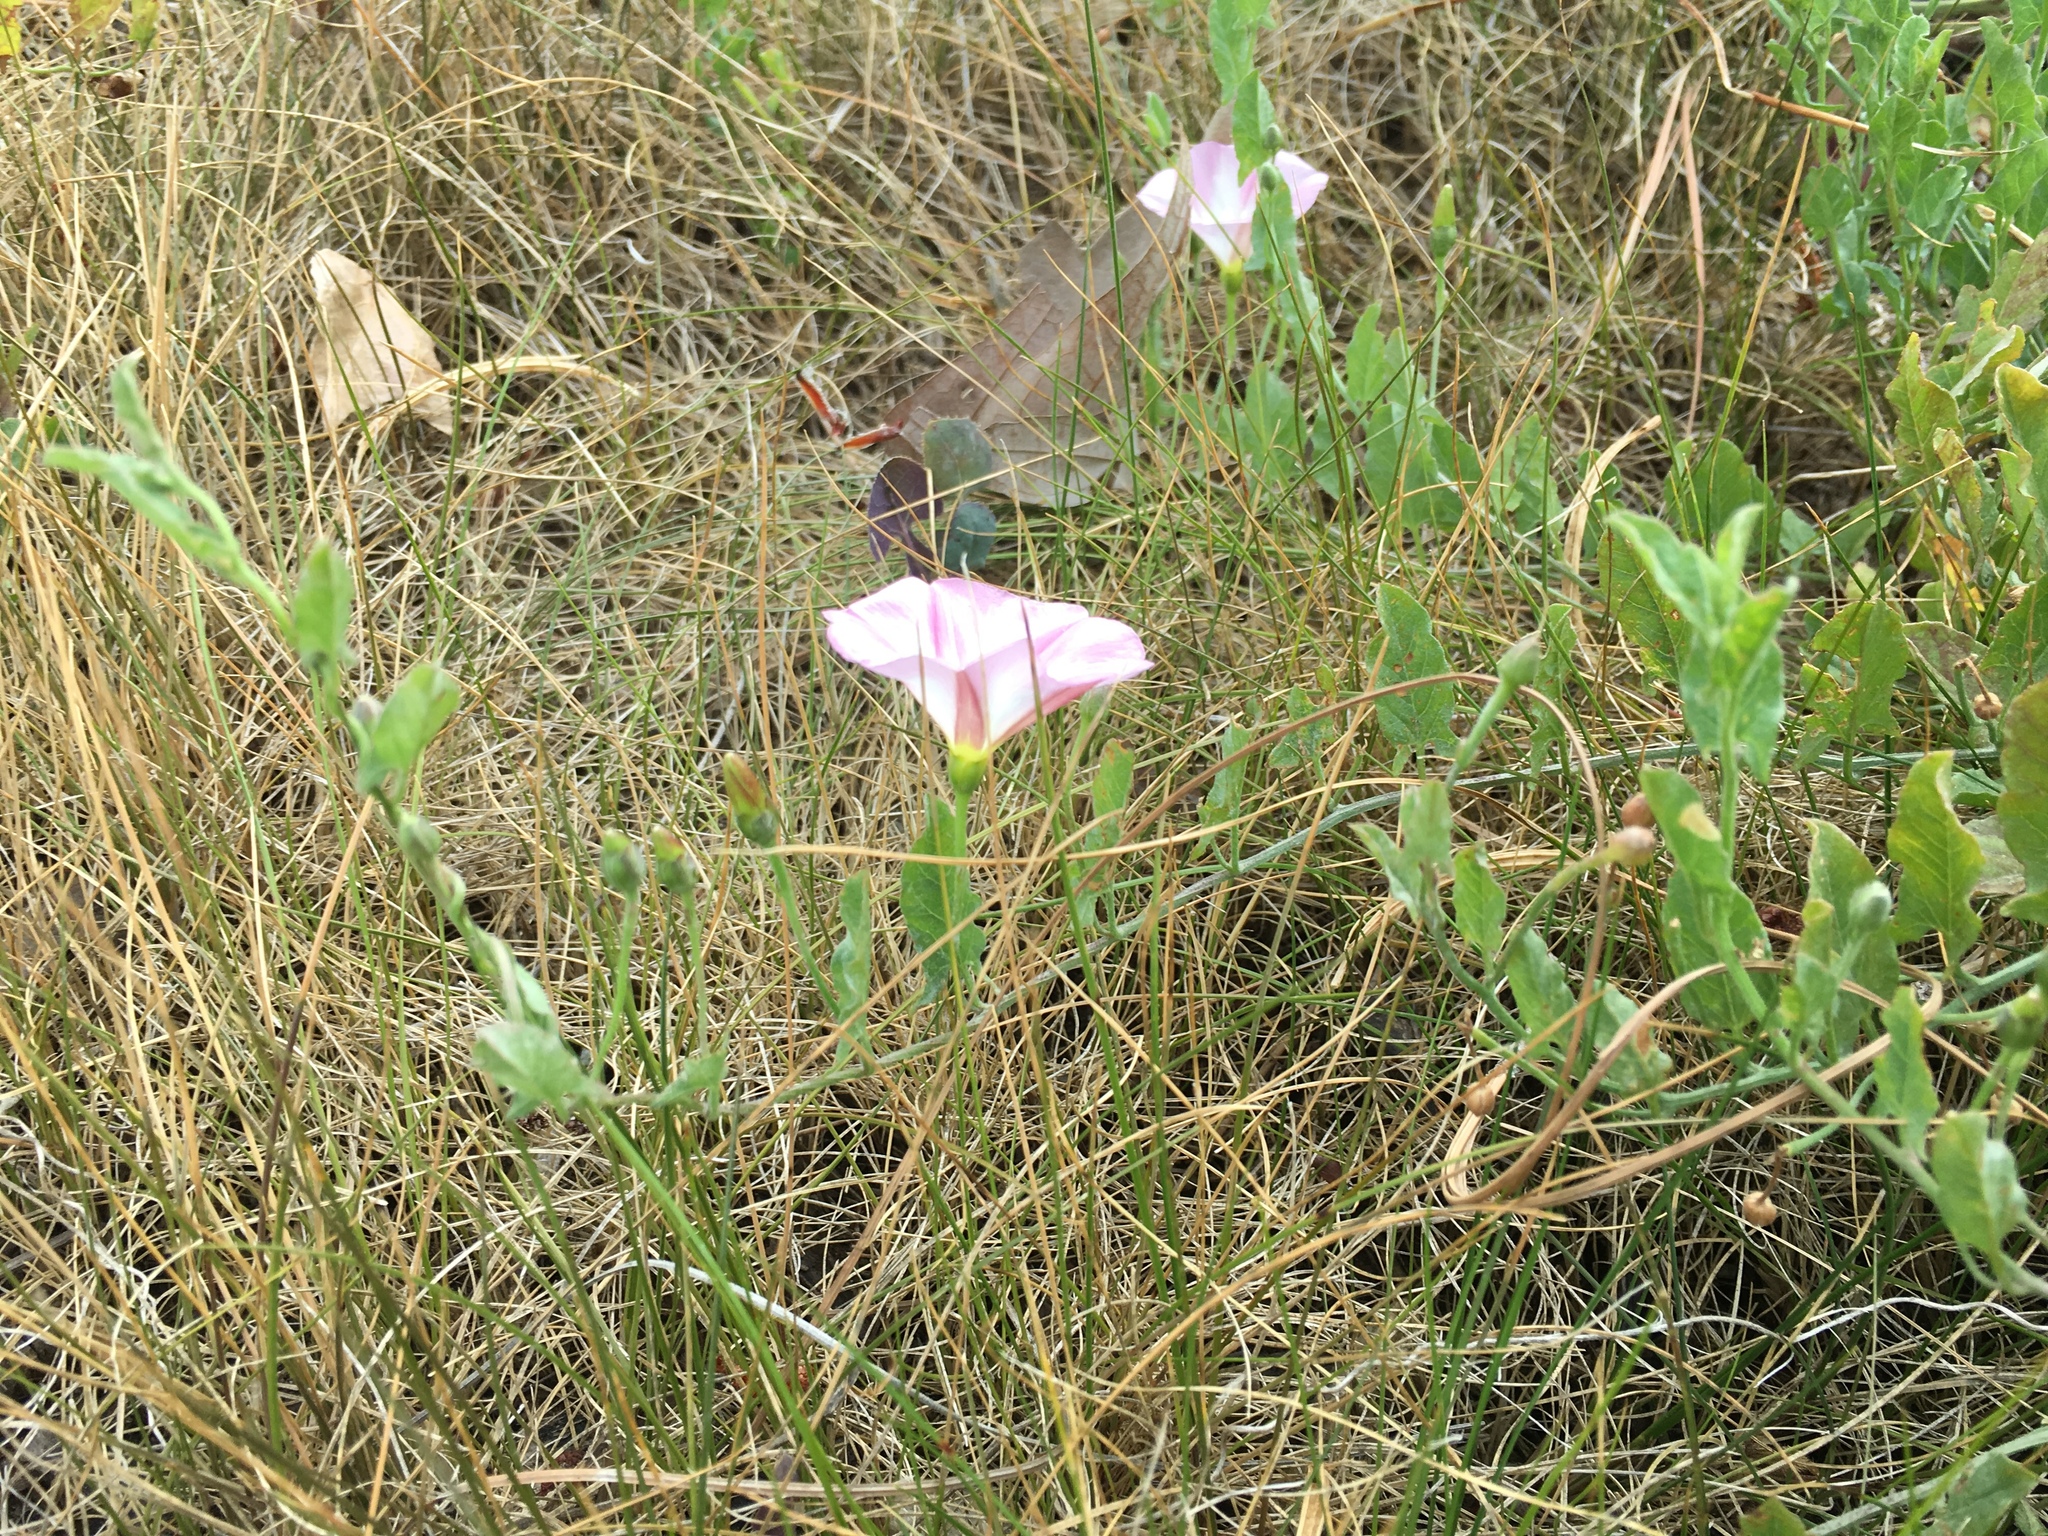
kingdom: Plantae
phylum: Tracheophyta
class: Magnoliopsida
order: Solanales
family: Convolvulaceae
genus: Convolvulus
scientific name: Convolvulus arvensis
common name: Field bindweed
